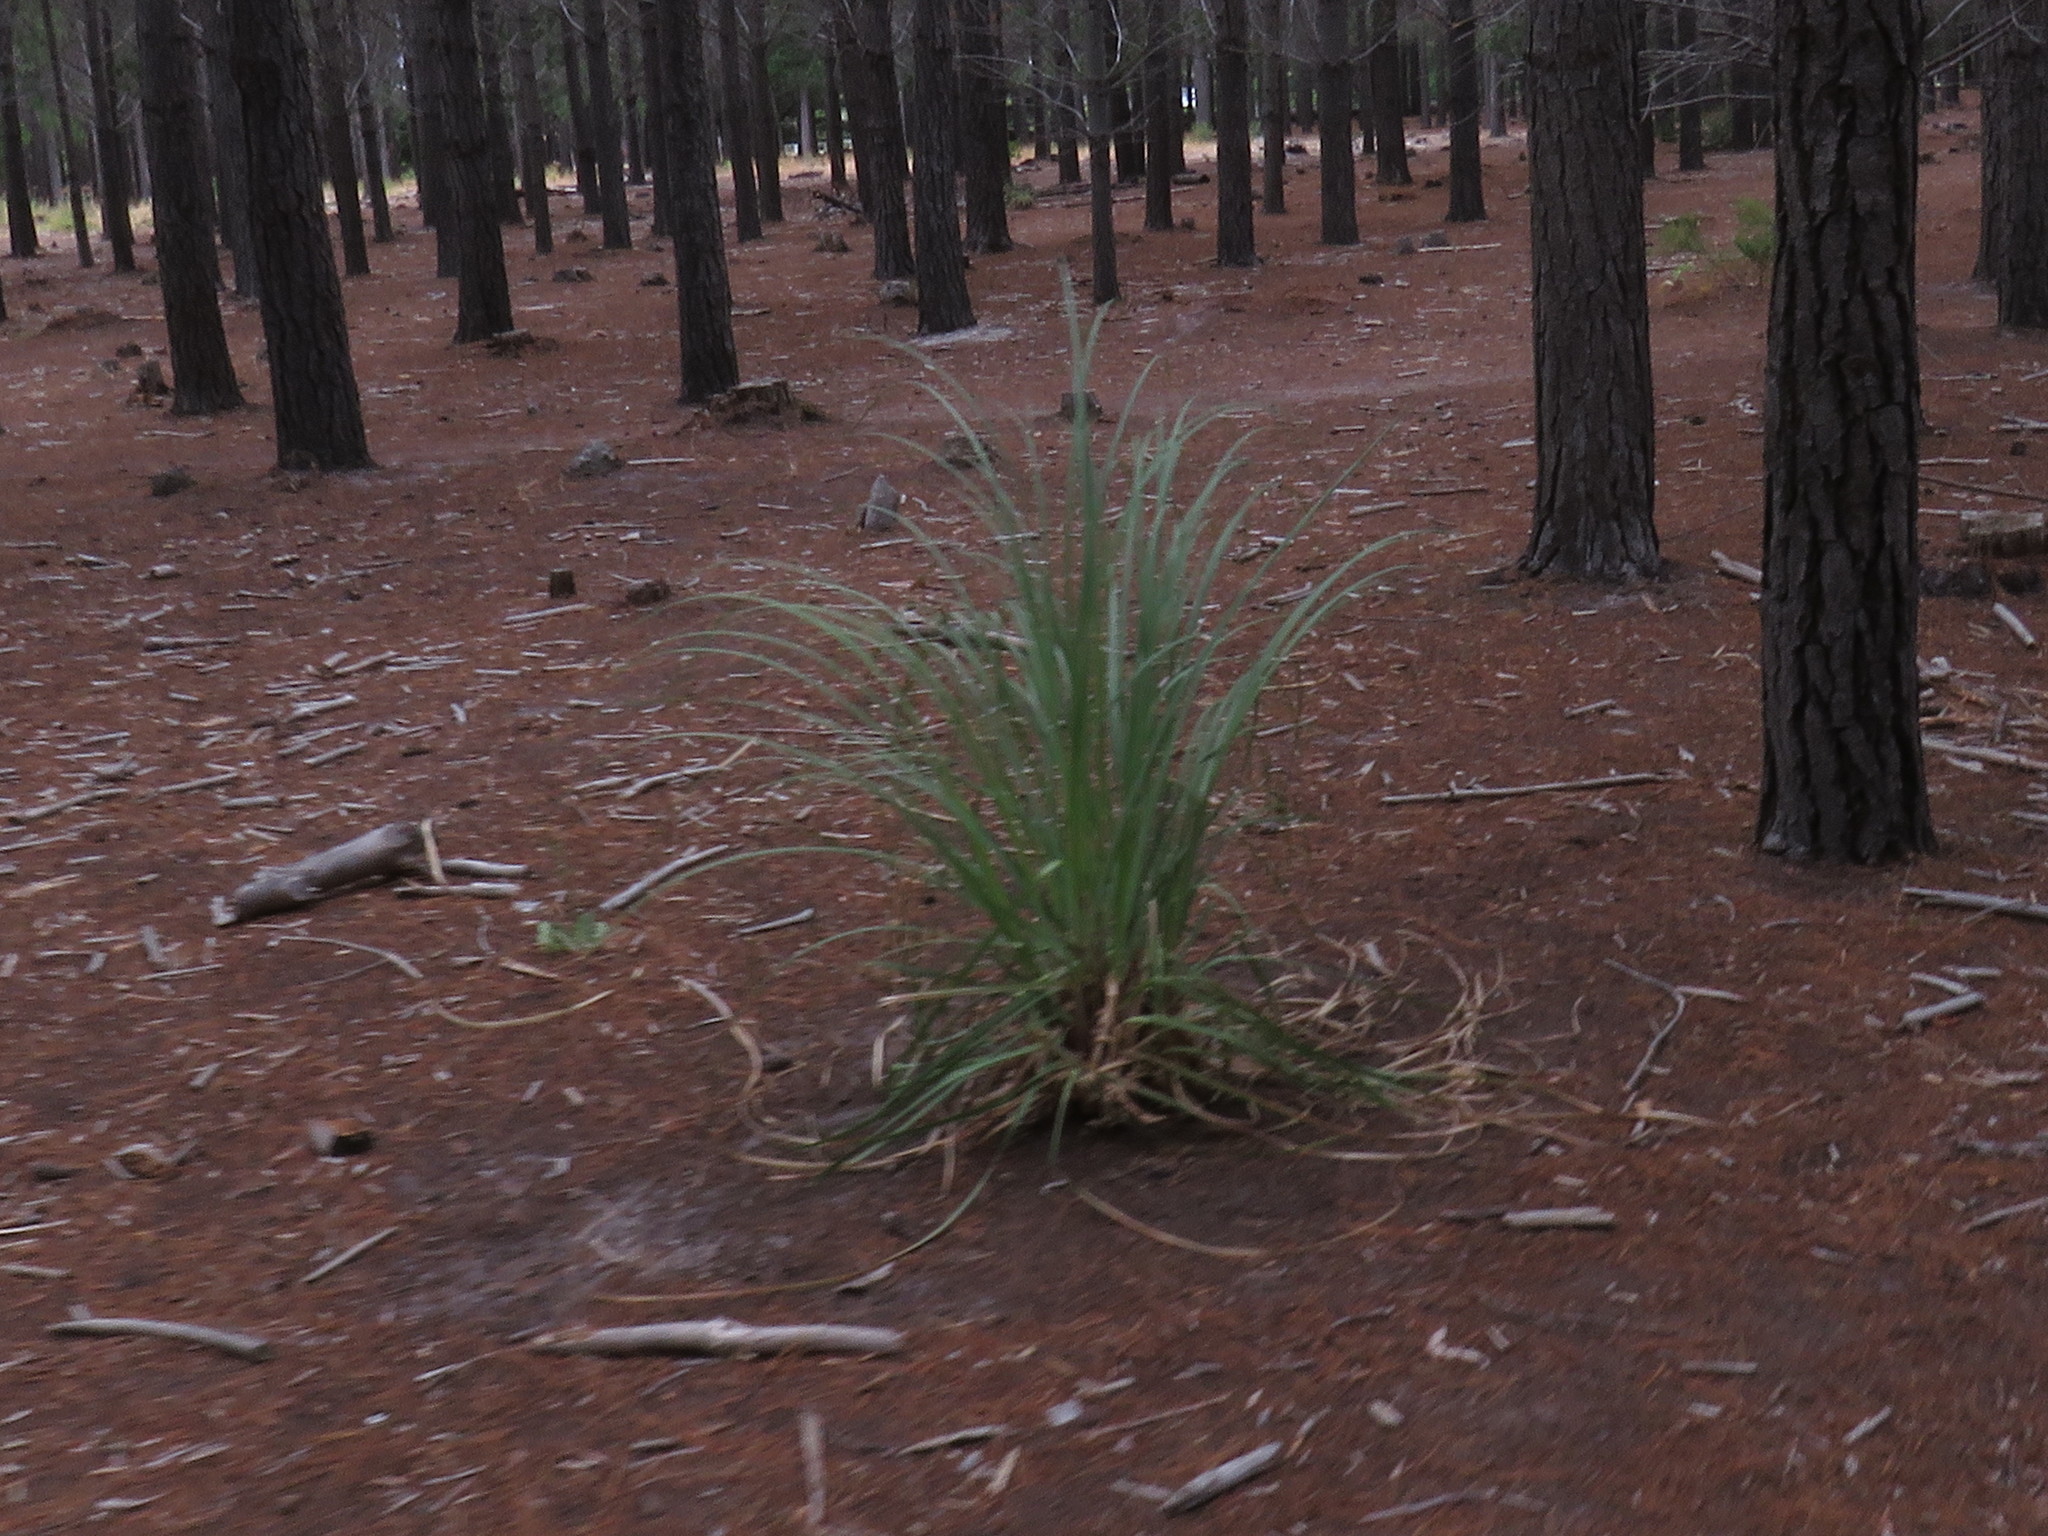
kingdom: Plantae
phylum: Tracheophyta
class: Liliopsida
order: Poales
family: Poaceae
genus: Cortaderia
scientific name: Cortaderia selloana
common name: Uruguayan pampas grass
